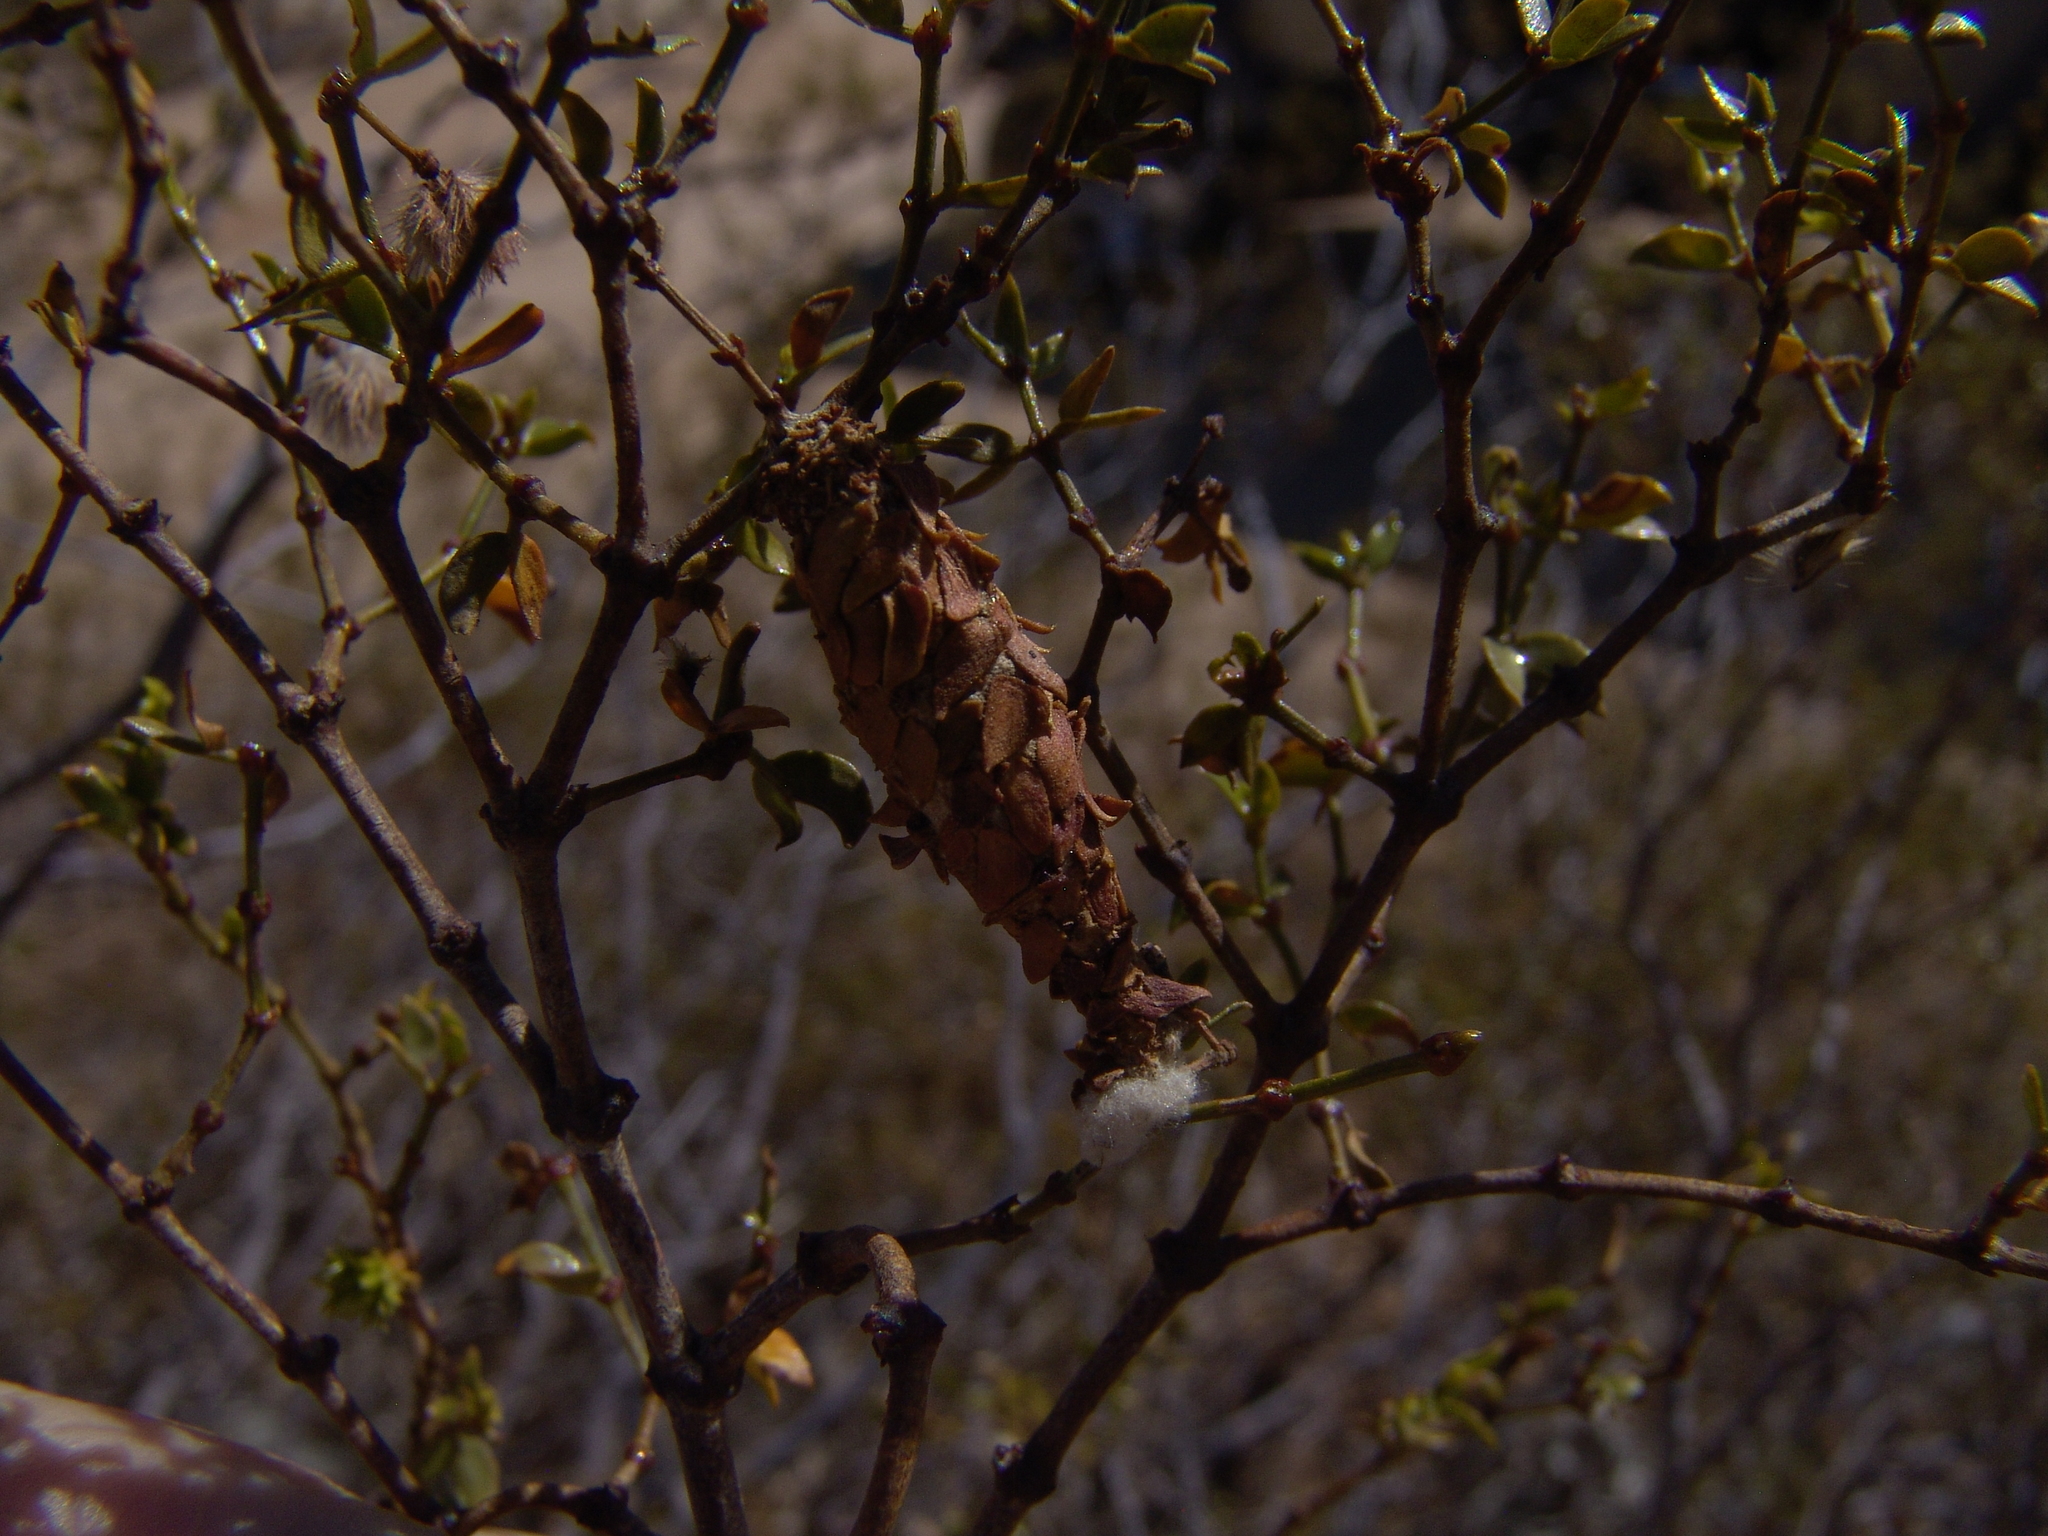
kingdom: Animalia
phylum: Arthropoda
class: Insecta
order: Lepidoptera
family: Psychidae
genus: Thyridopteryx
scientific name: Thyridopteryx meadii
